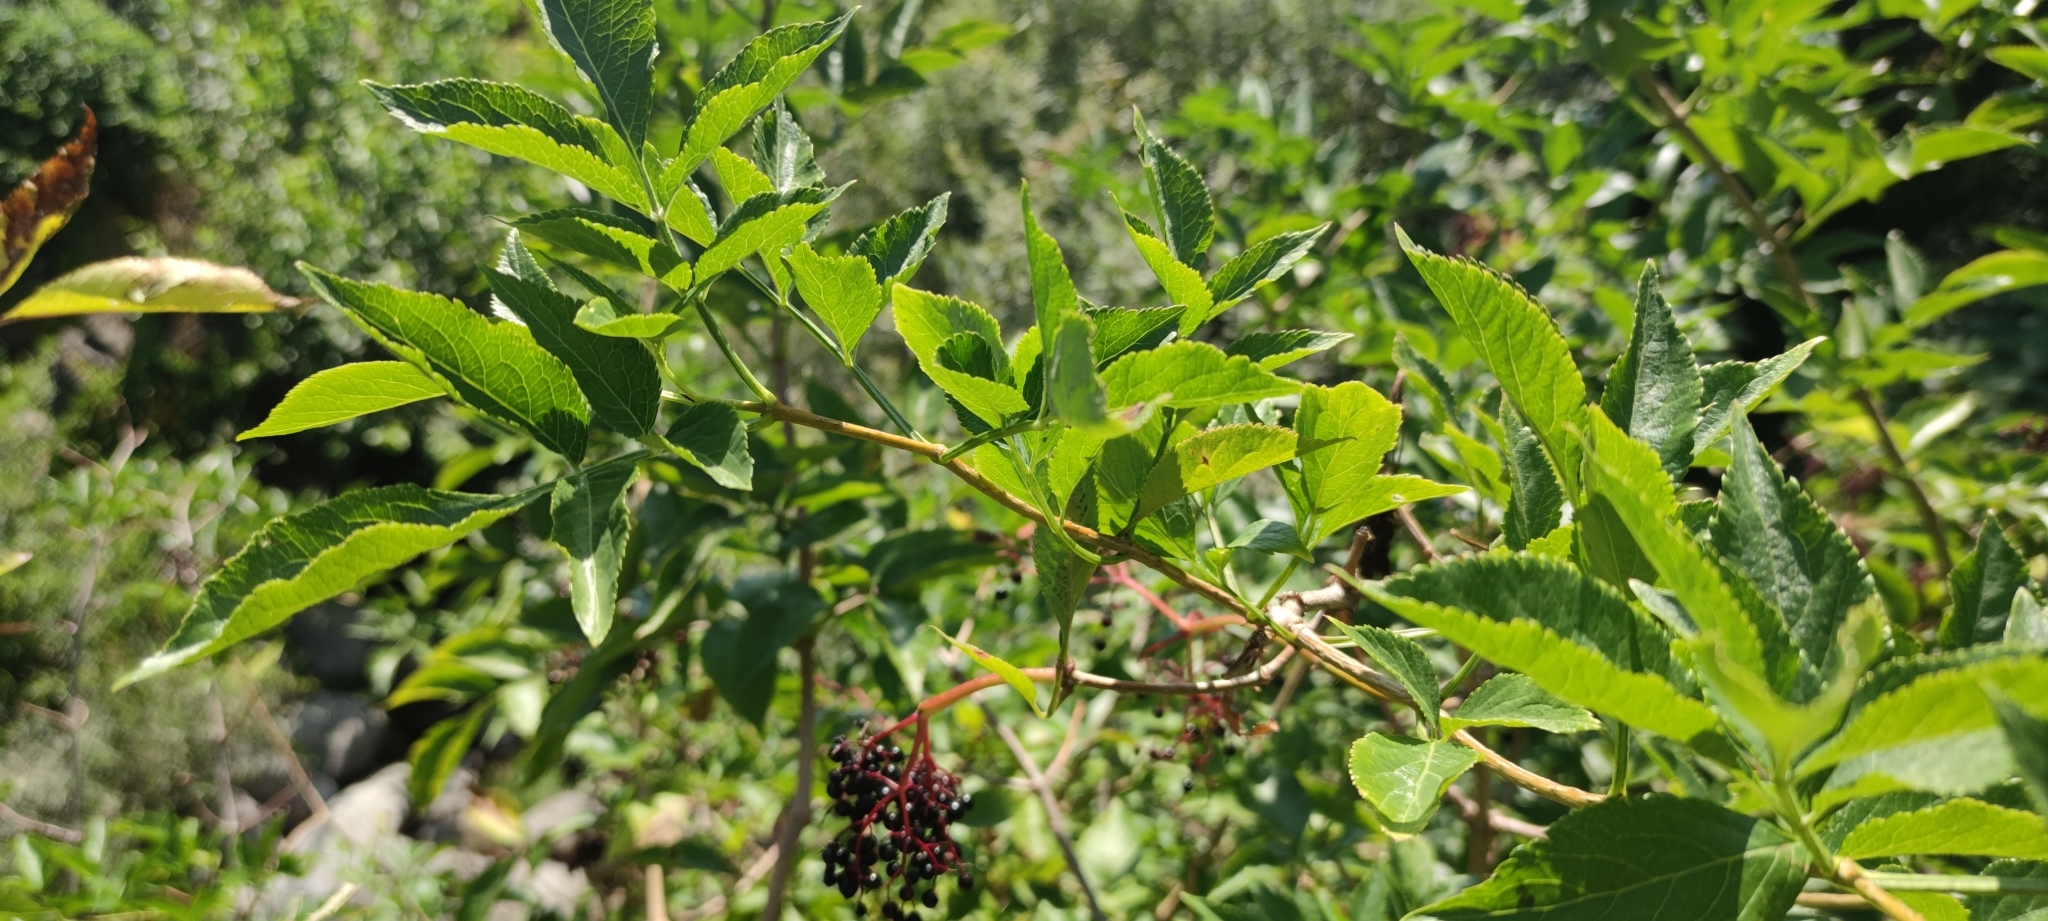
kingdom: Plantae
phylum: Tracheophyta
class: Magnoliopsida
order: Dipsacales
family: Viburnaceae
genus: Sambucus
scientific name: Sambucus nigra
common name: Elder
